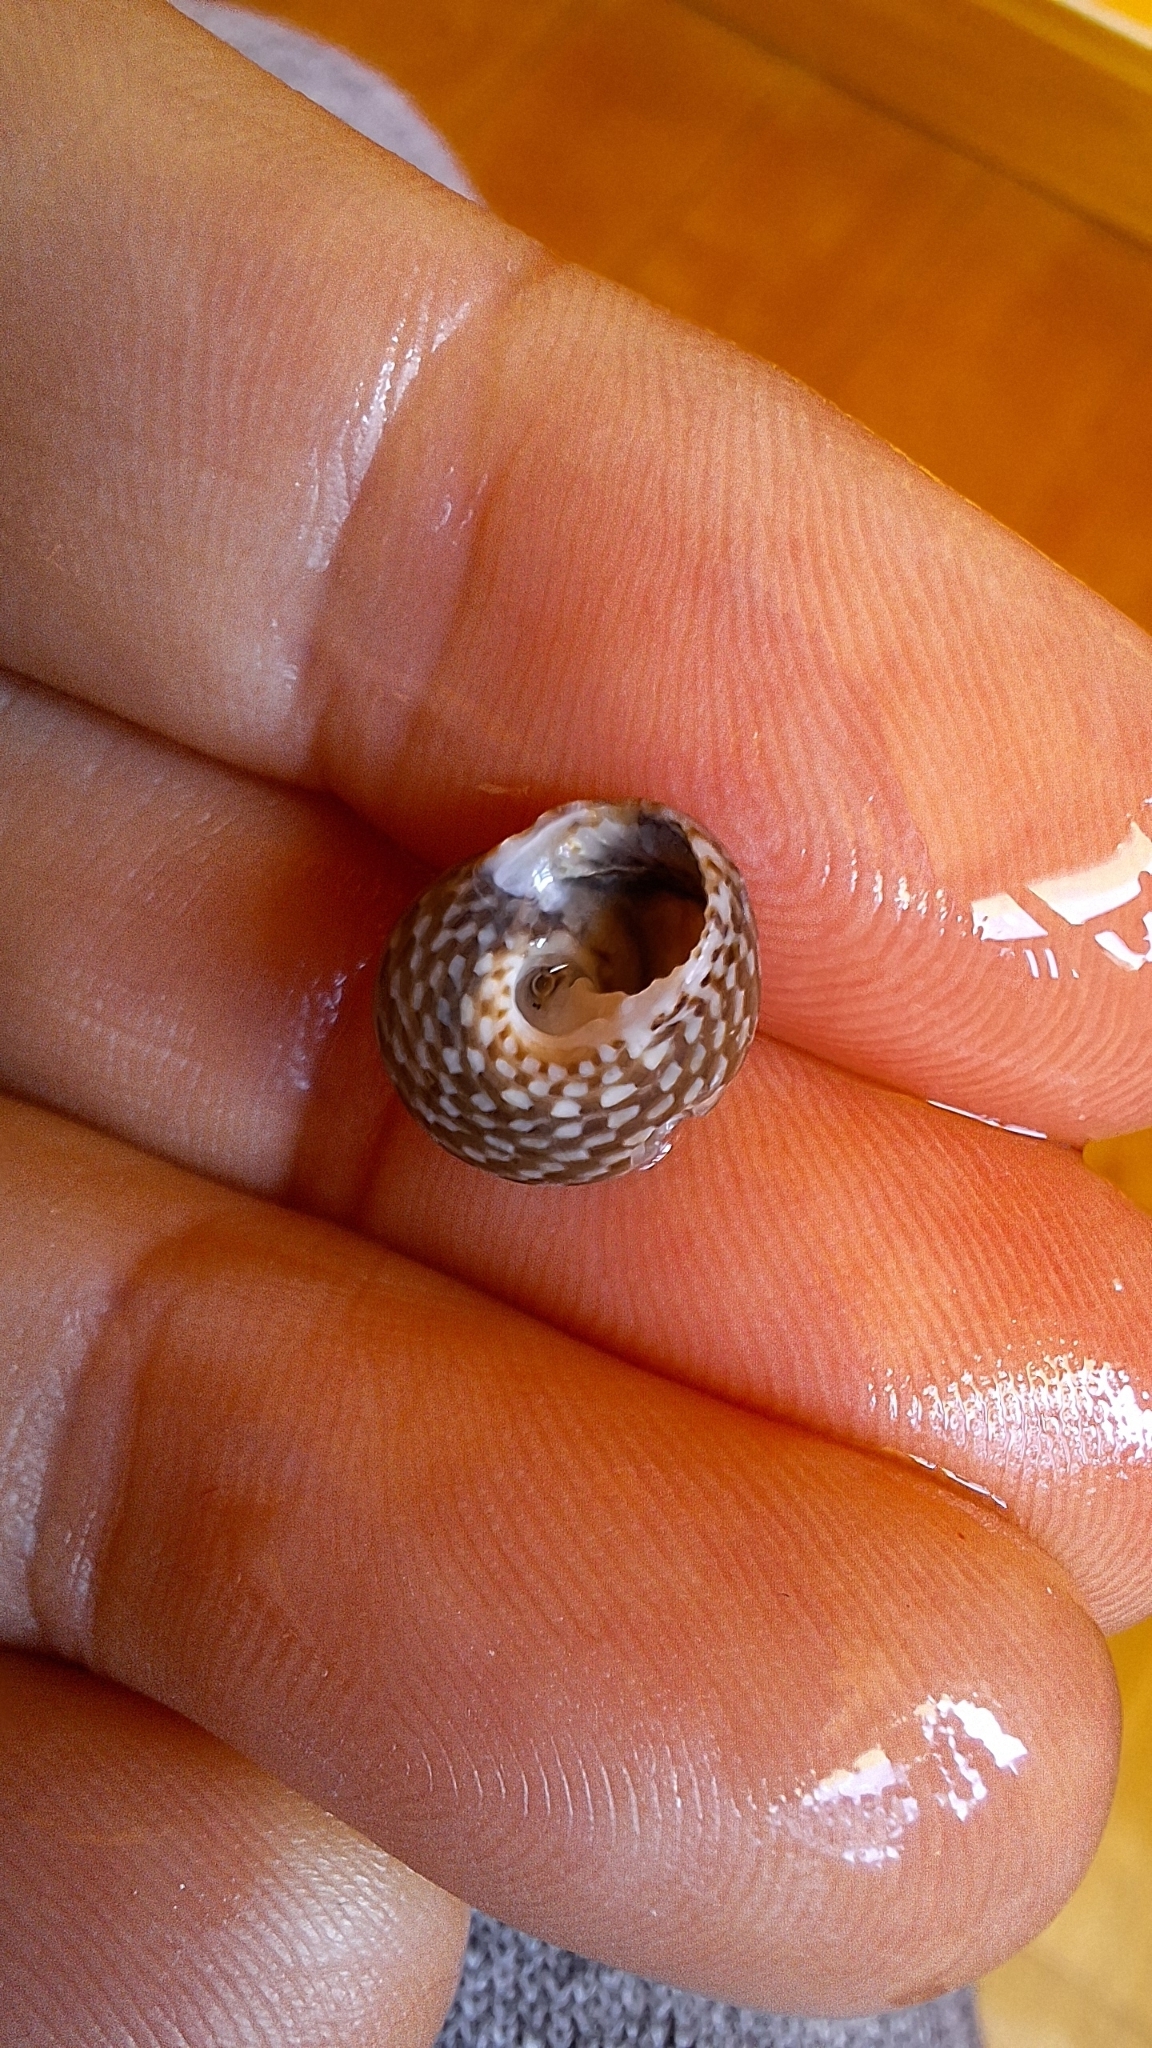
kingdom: Animalia
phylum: Mollusca
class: Gastropoda
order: Trochida
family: Trochidae
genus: Clanculus
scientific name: Clanculus jussieui
